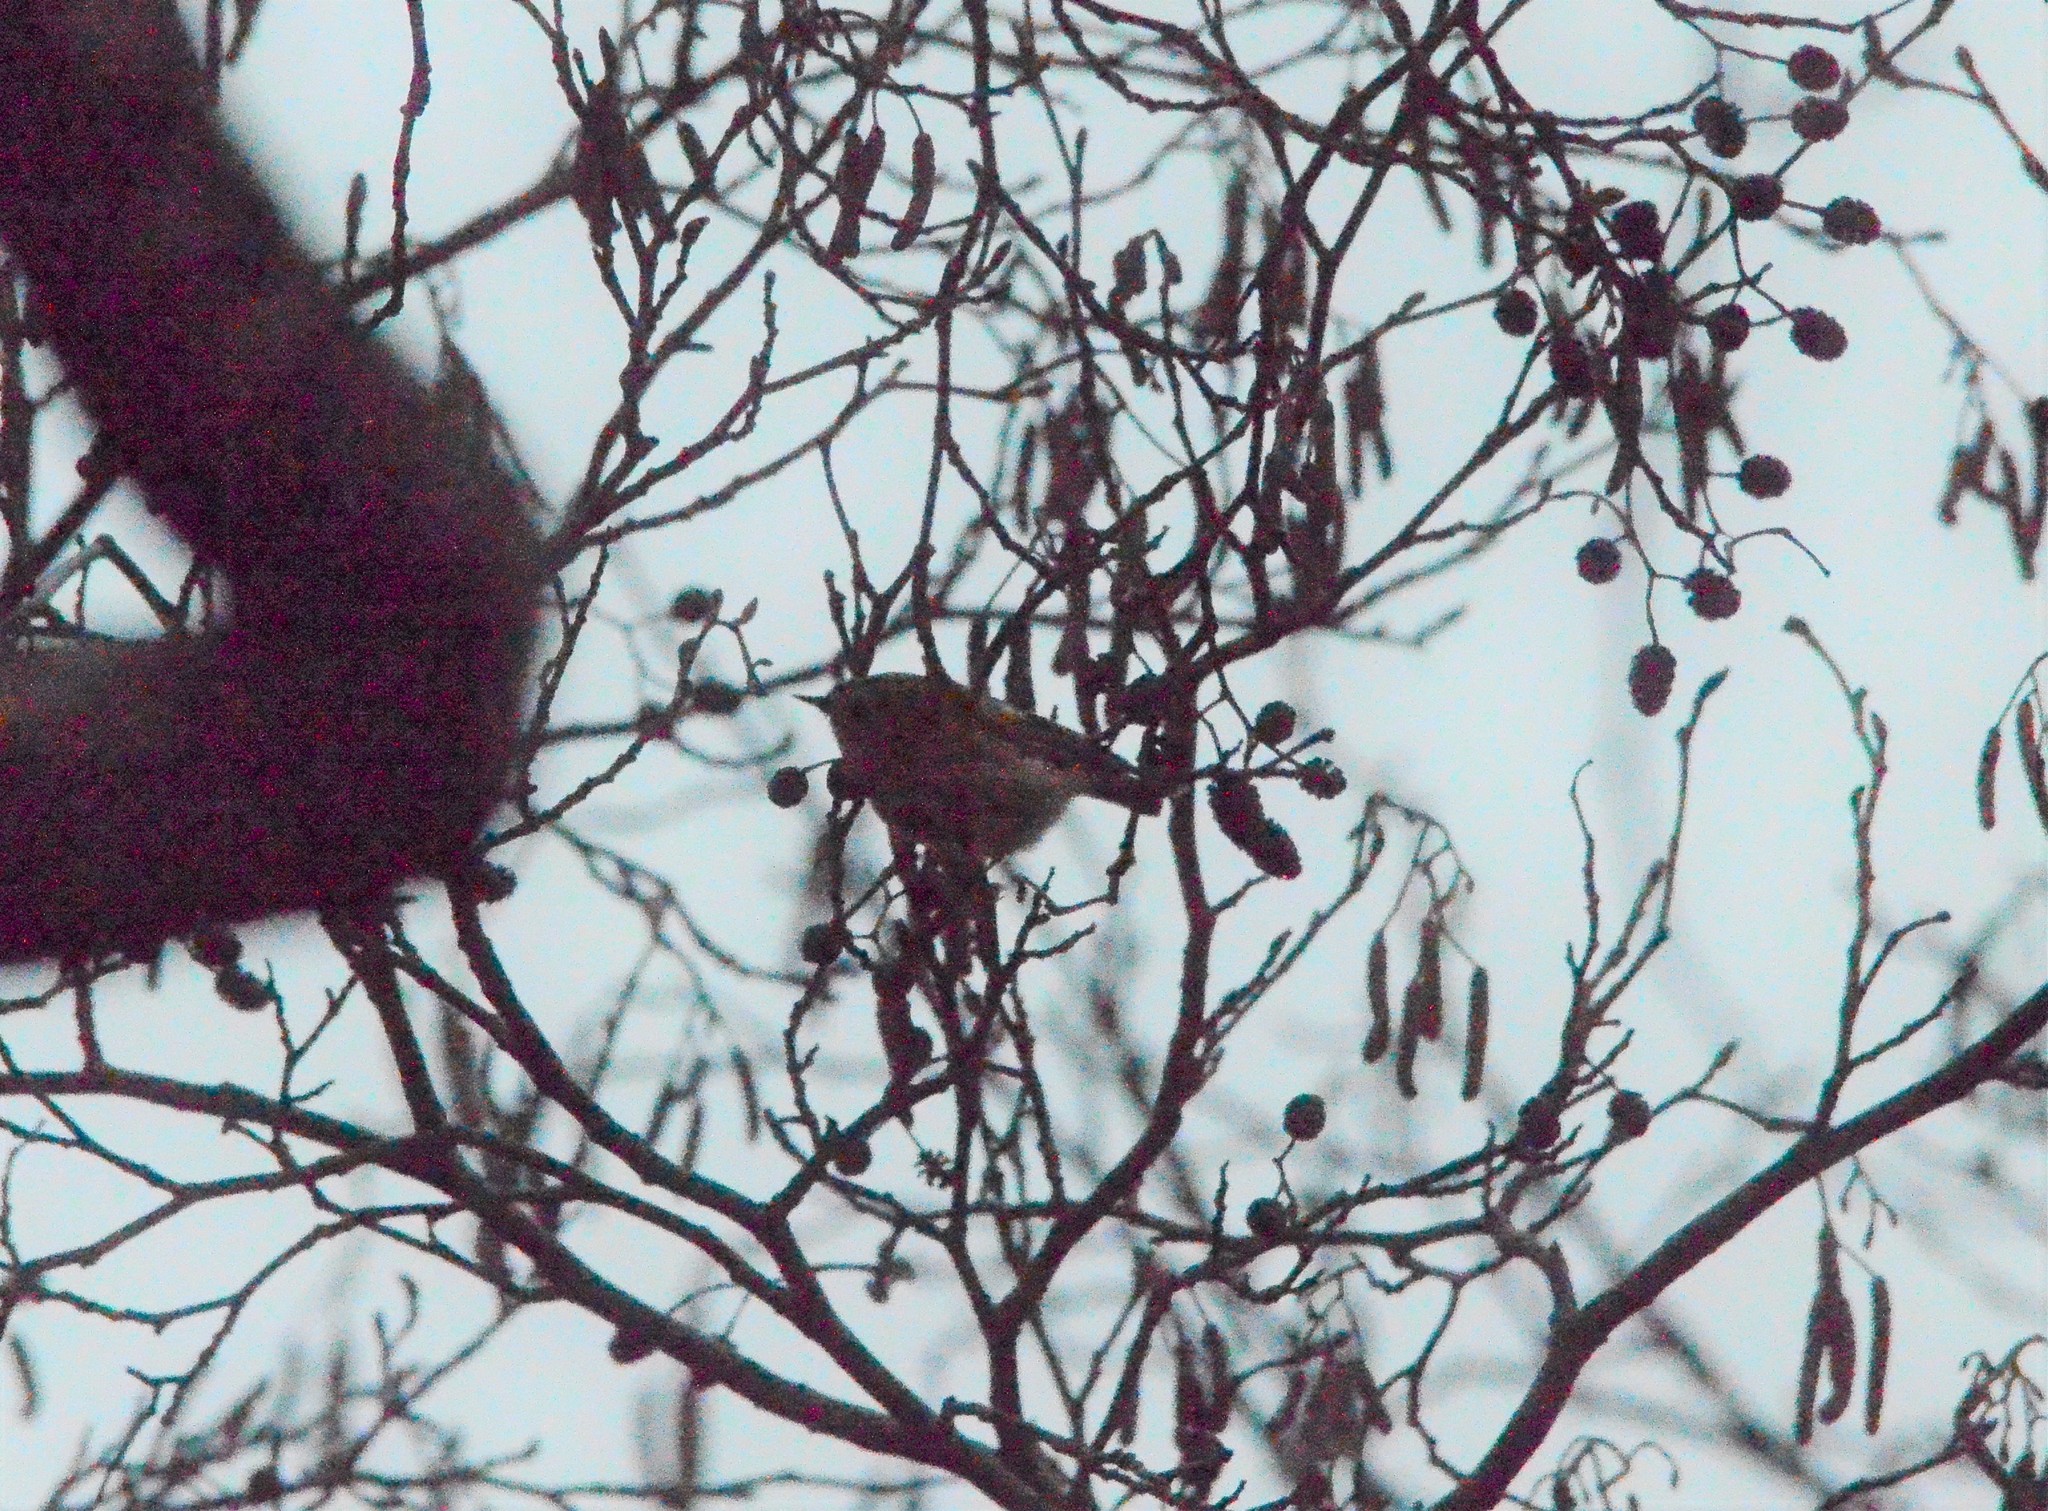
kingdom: Animalia
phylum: Chordata
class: Aves
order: Passeriformes
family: Regulidae
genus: Regulus
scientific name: Regulus regulus
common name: Goldcrest
